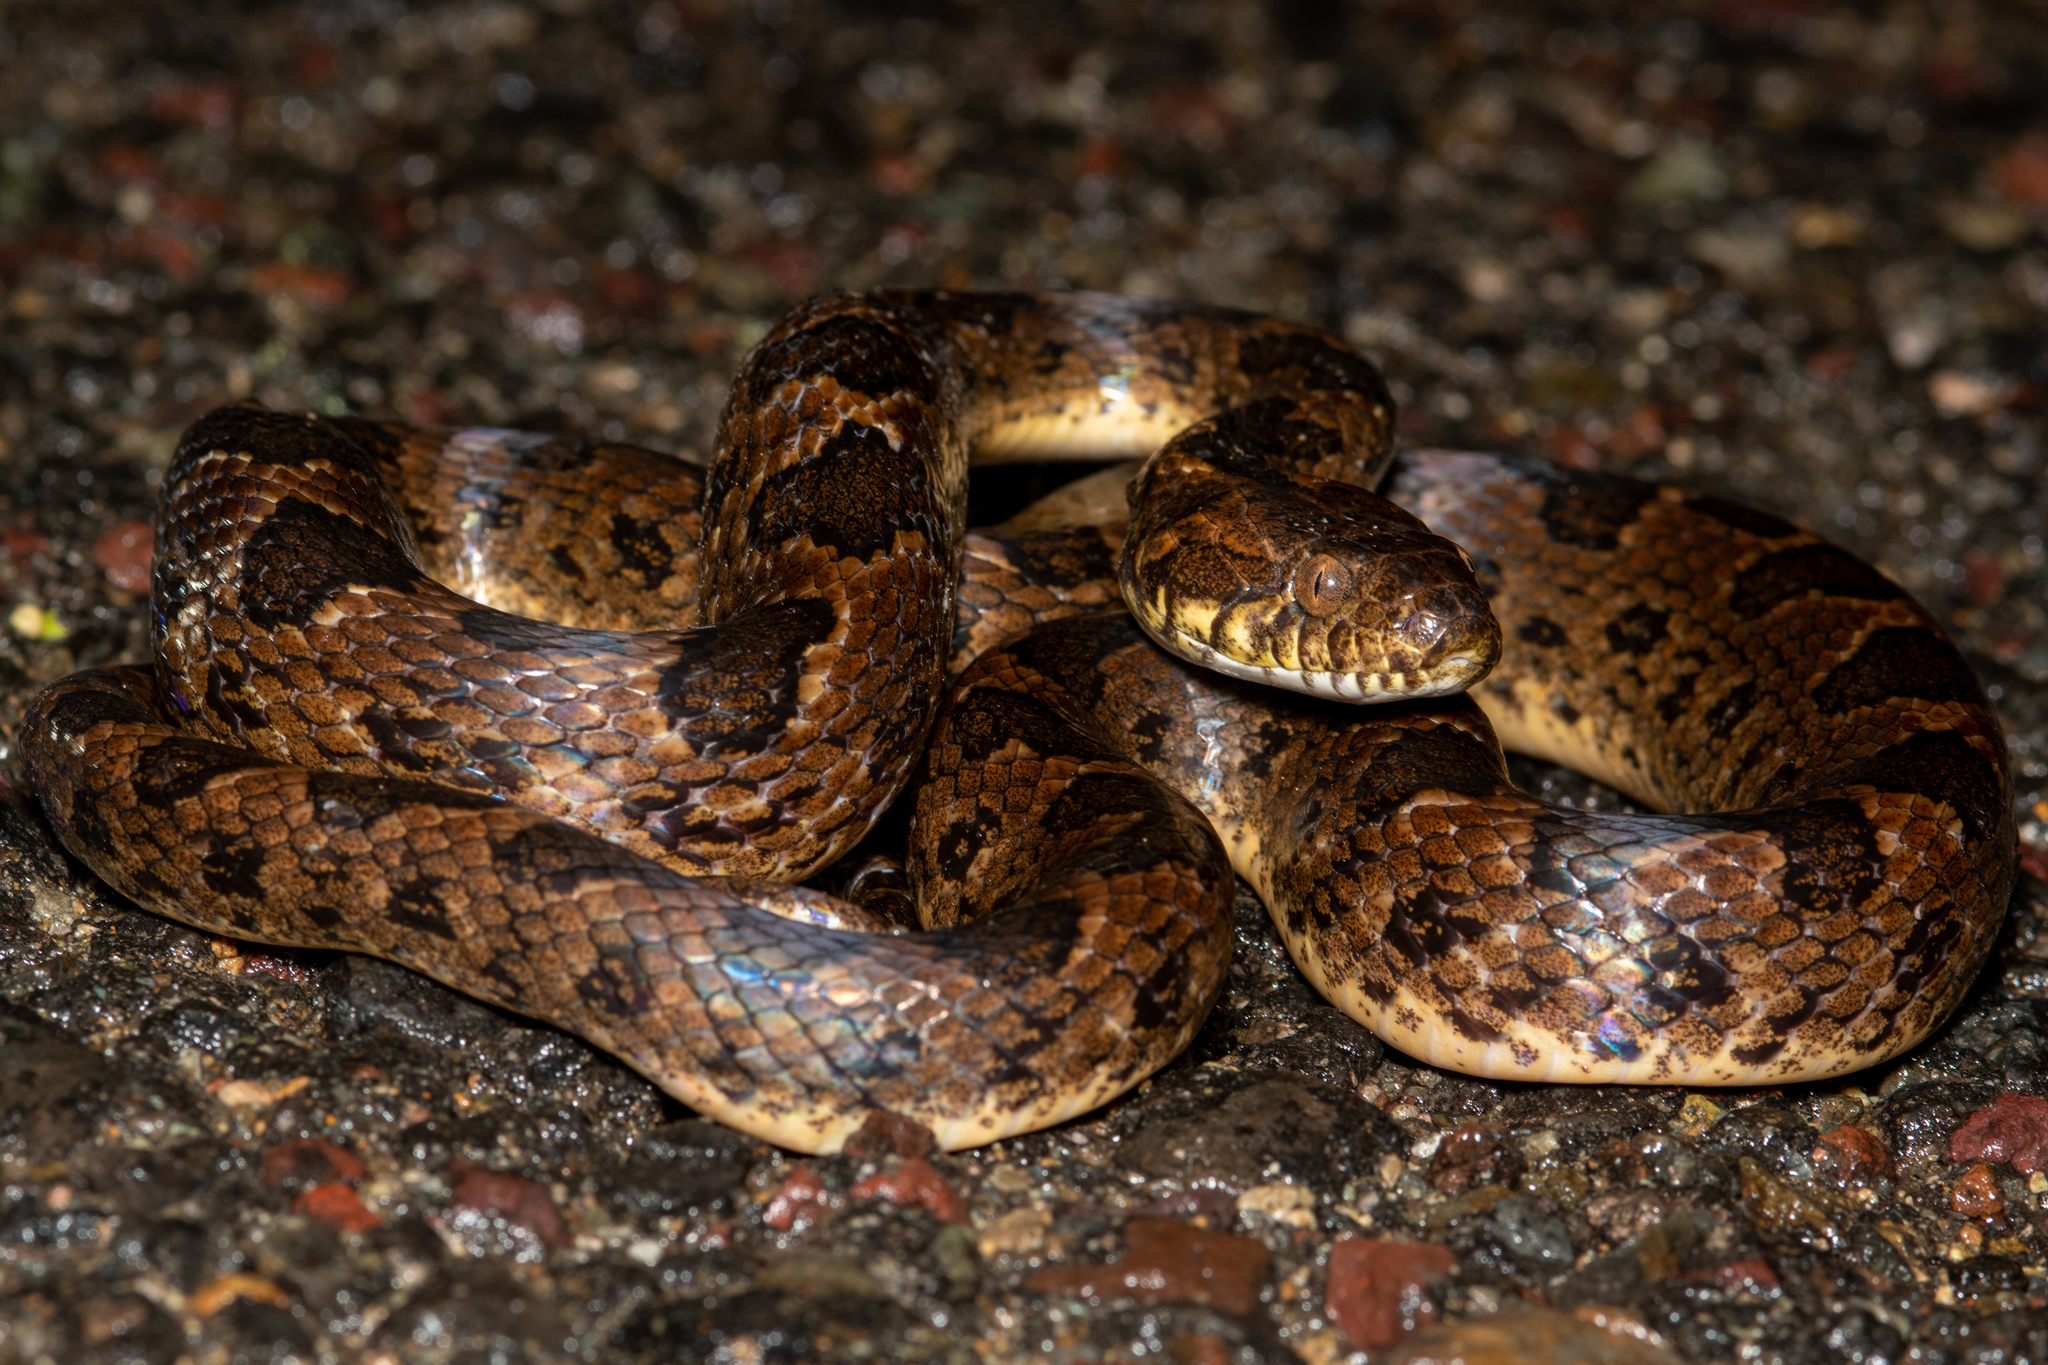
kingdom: Animalia
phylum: Chordata
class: Squamata
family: Colubridae
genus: Leptodeira
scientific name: Leptodeira rhombifera
